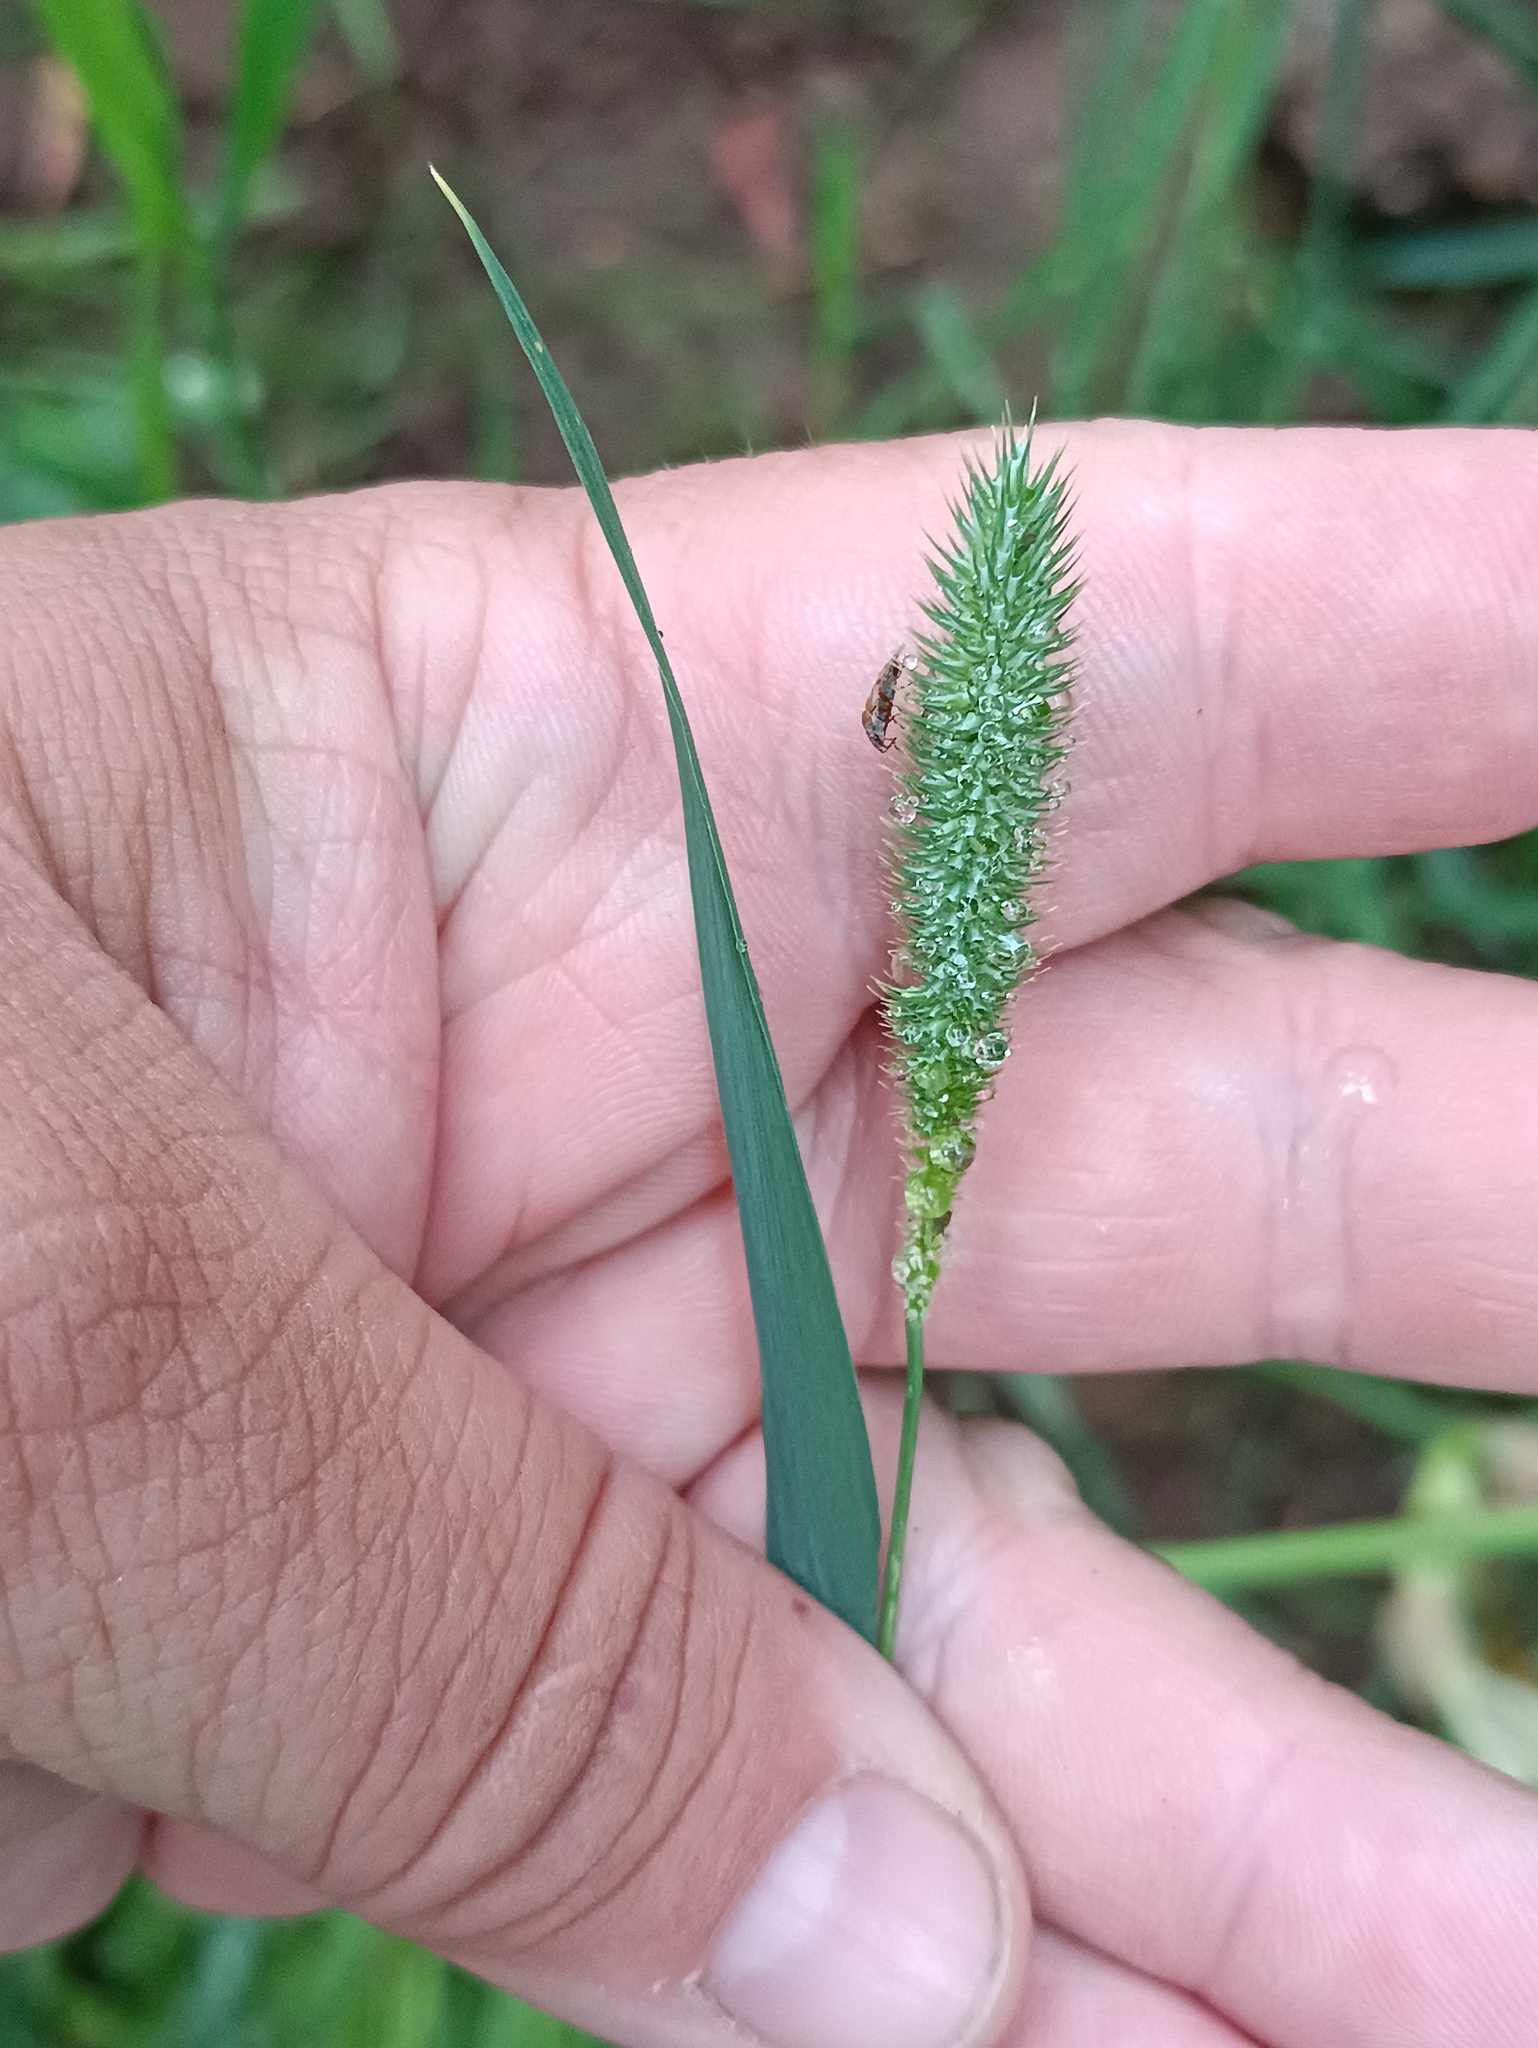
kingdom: Plantae
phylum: Tracheophyta
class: Liliopsida
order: Poales
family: Poaceae
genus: Phleum
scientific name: Phleum pratense
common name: Timothy grass
